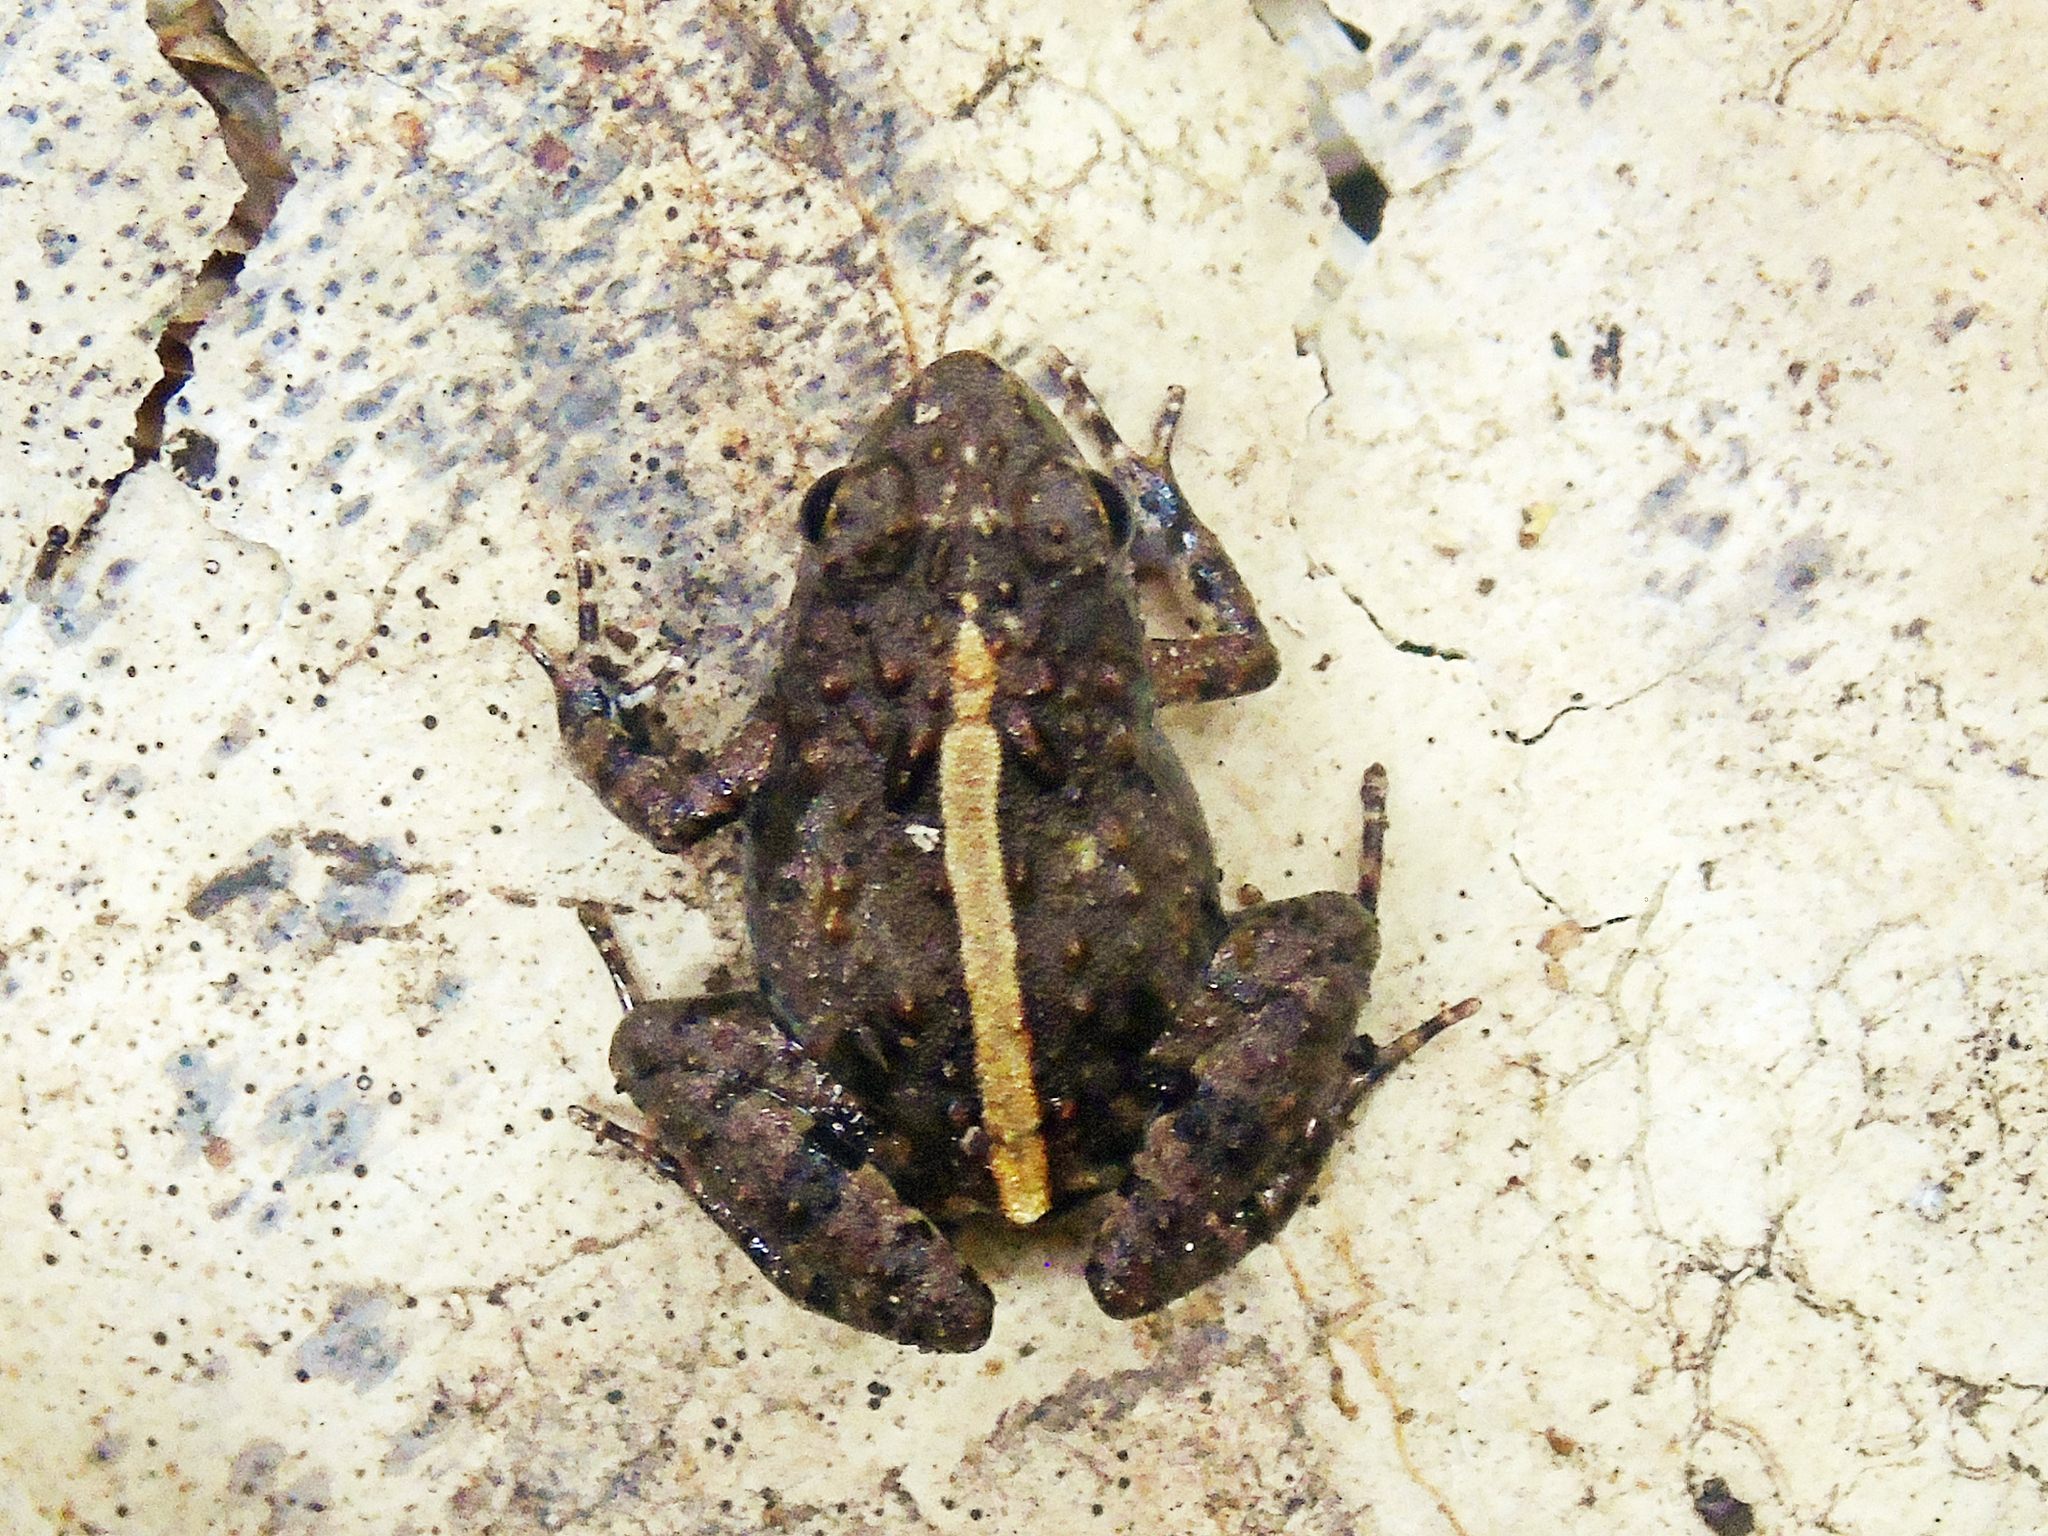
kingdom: Animalia
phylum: Chordata
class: Amphibia
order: Anura
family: Phrynobatrachidae
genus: Phrynobatrachus
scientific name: Phrynobatrachus ungujae
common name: Zanzibar puddle frog
